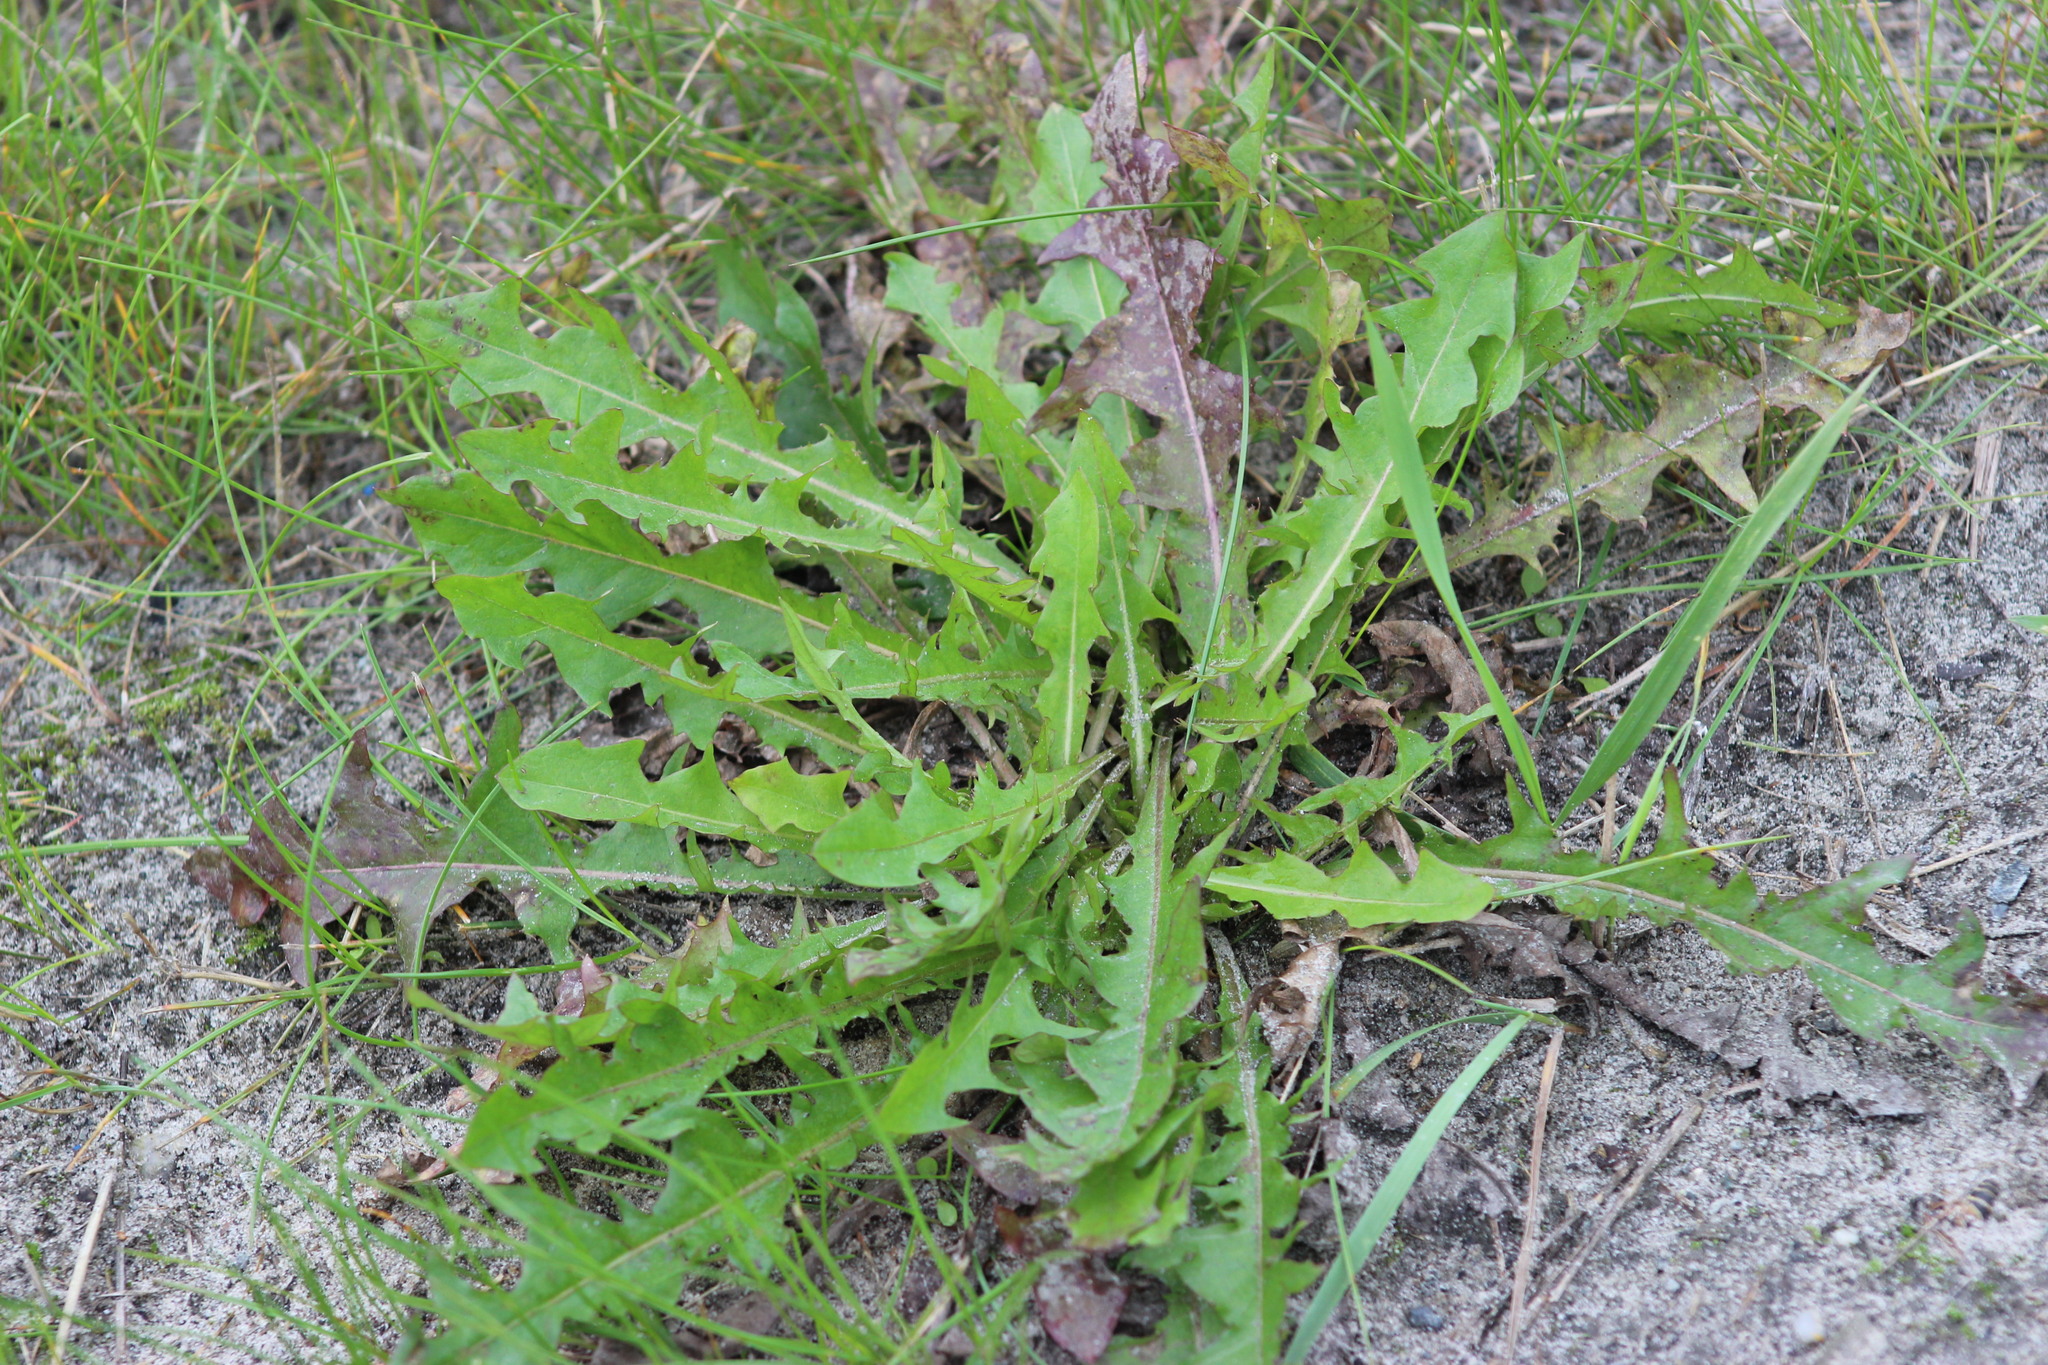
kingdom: Plantae
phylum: Tracheophyta
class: Magnoliopsida
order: Asterales
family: Asteraceae
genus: Taraxacum
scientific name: Taraxacum officinale
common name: Common dandelion
